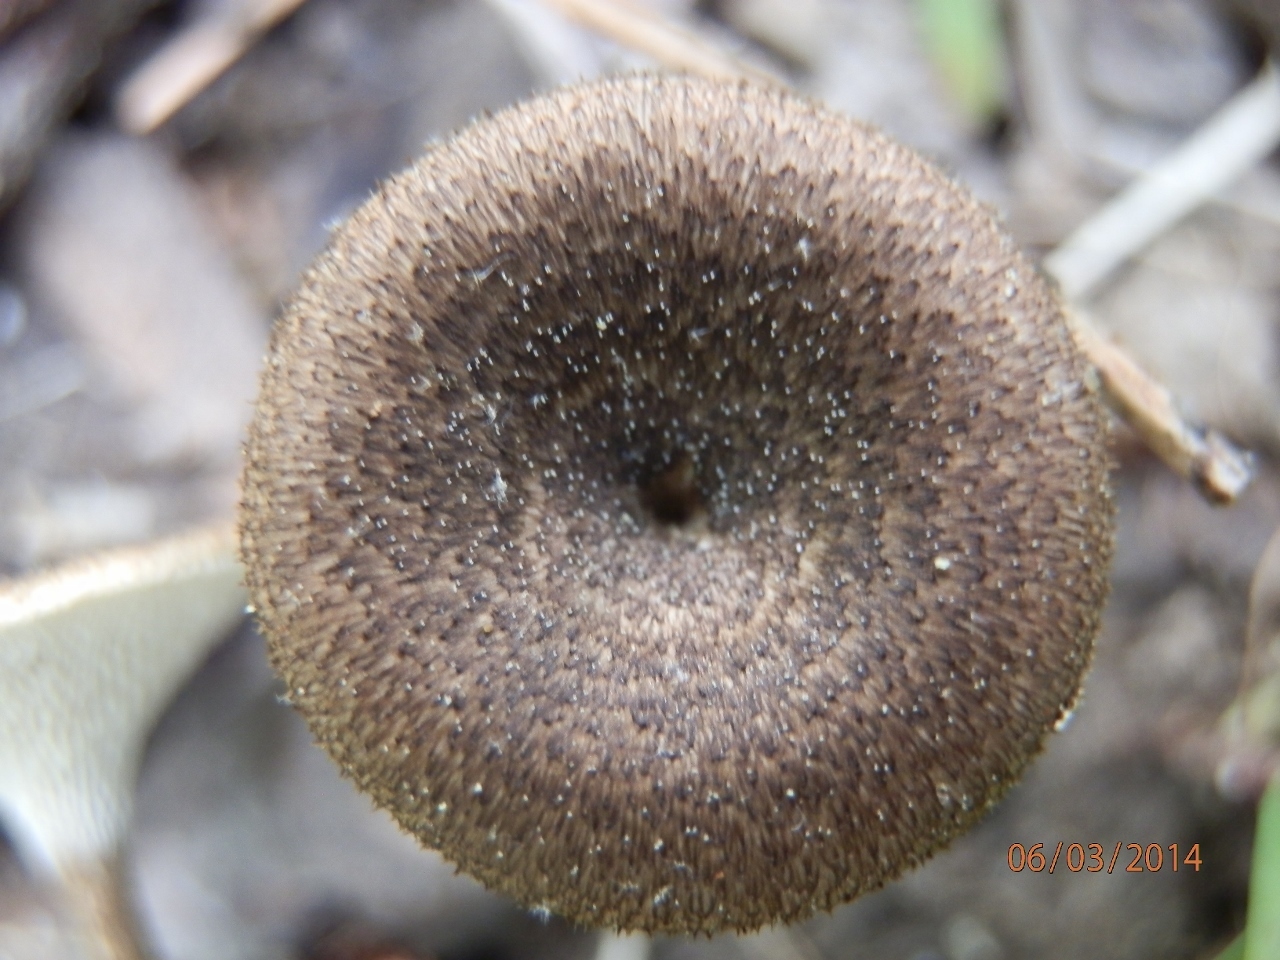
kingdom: Fungi
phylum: Basidiomycota
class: Agaricomycetes
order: Polyporales
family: Polyporaceae
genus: Lentinus
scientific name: Lentinus arcularius
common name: Spring polypore
